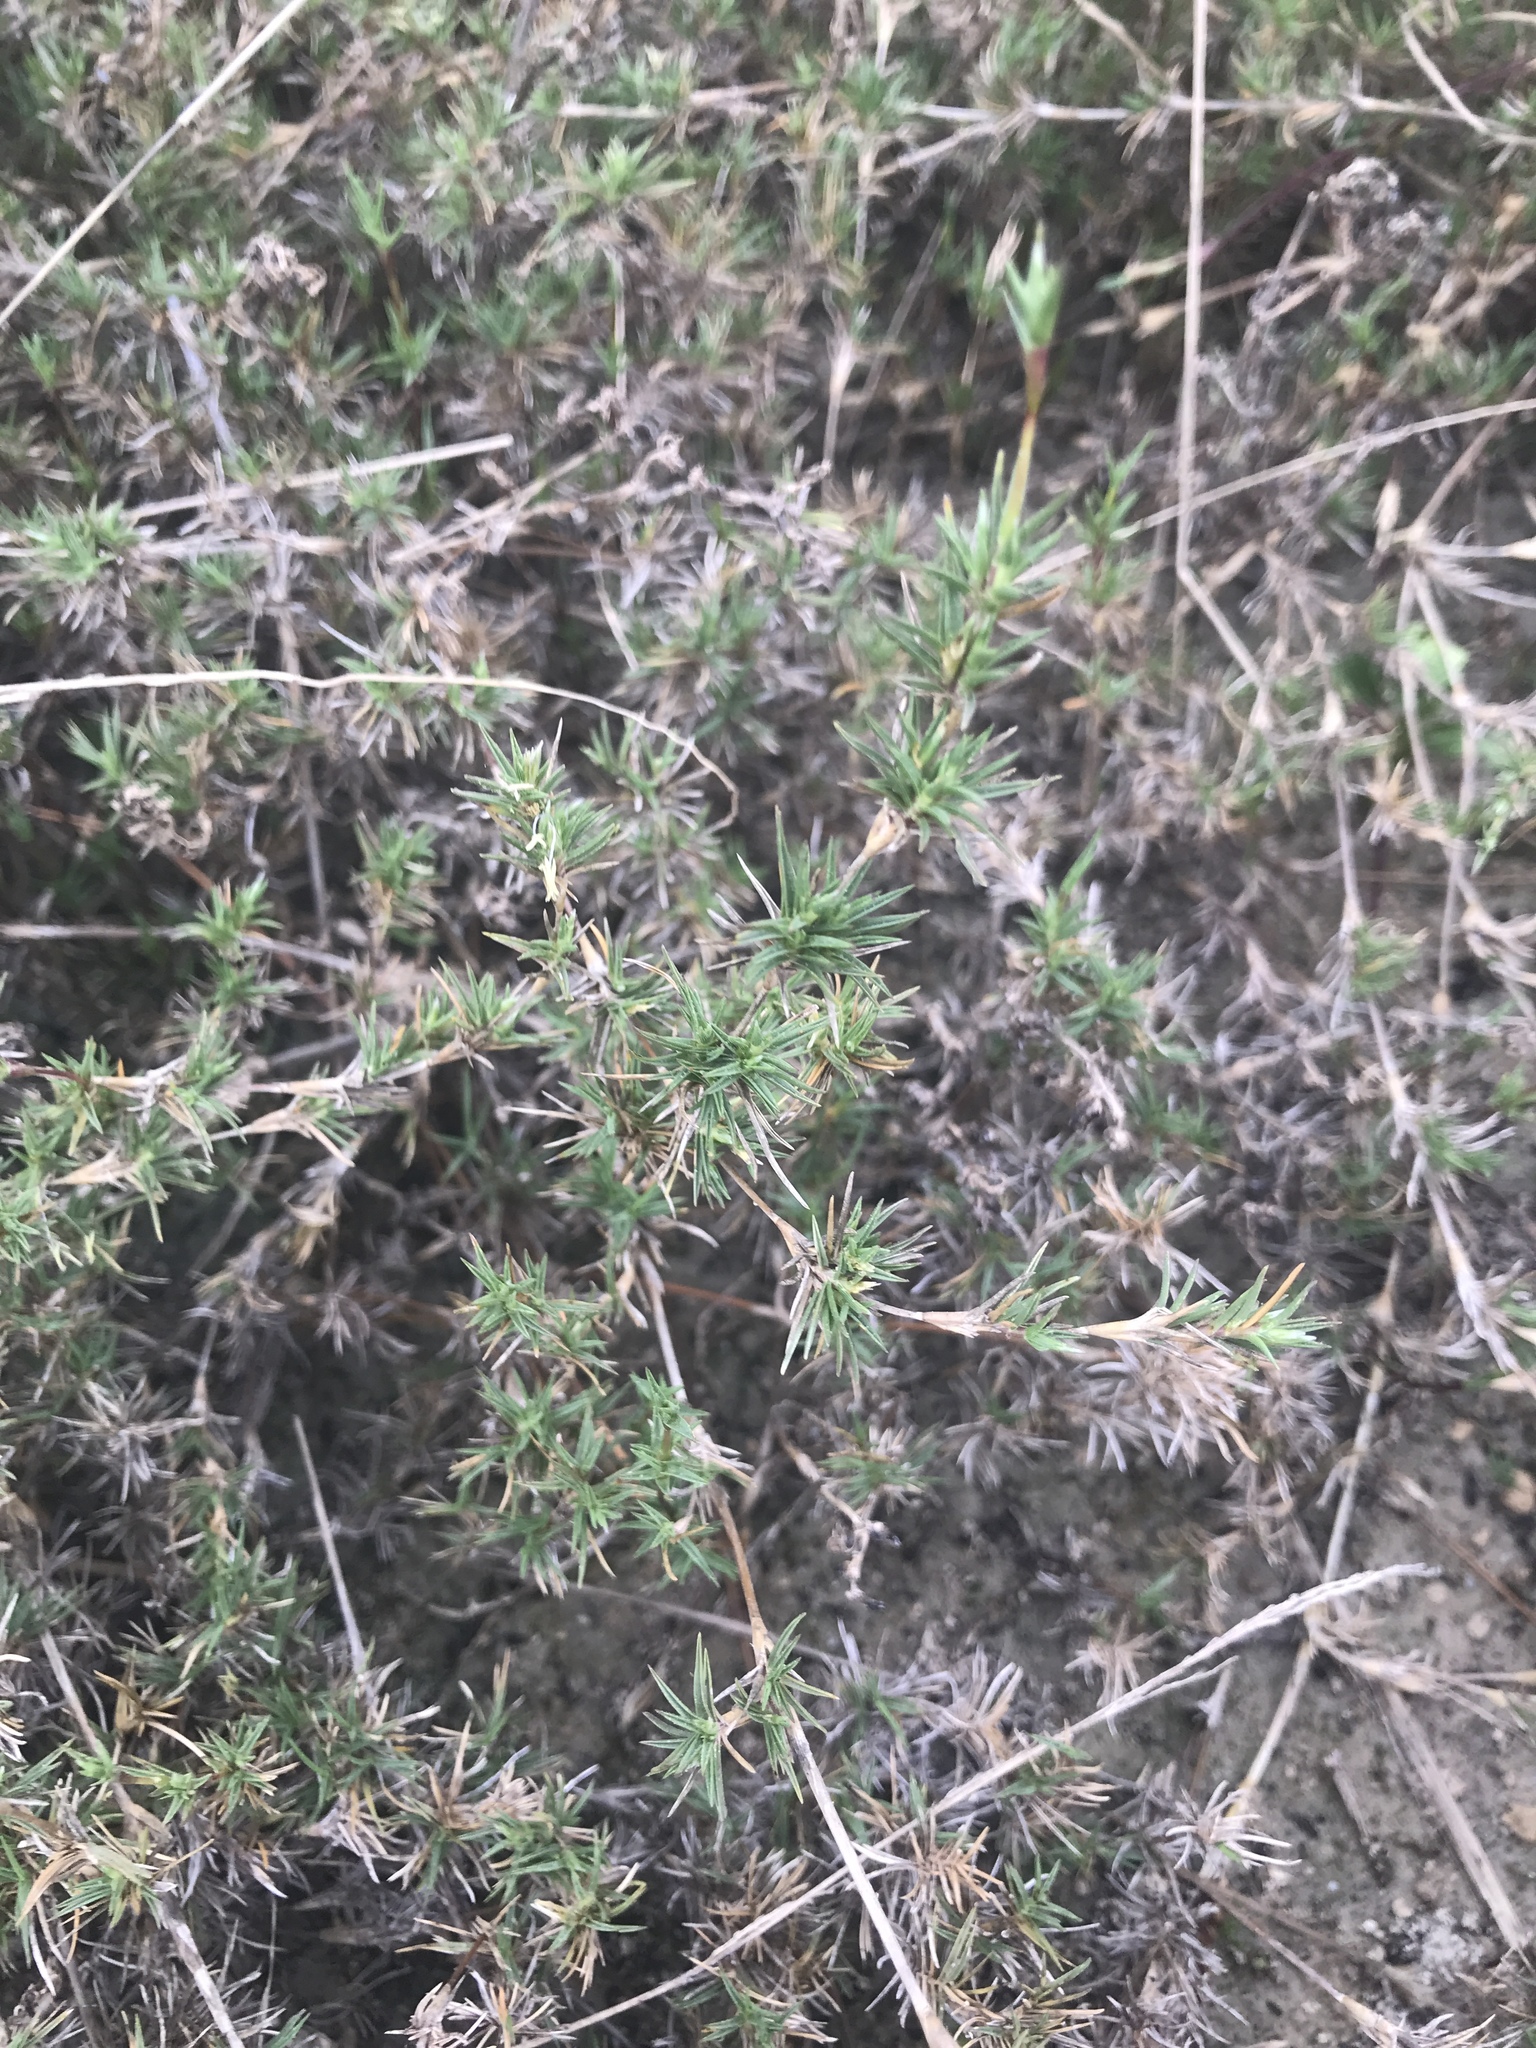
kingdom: Plantae
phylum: Tracheophyta
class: Liliopsida
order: Poales
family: Poaceae
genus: Distichlis
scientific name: Distichlis littoralis
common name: Shore grass
